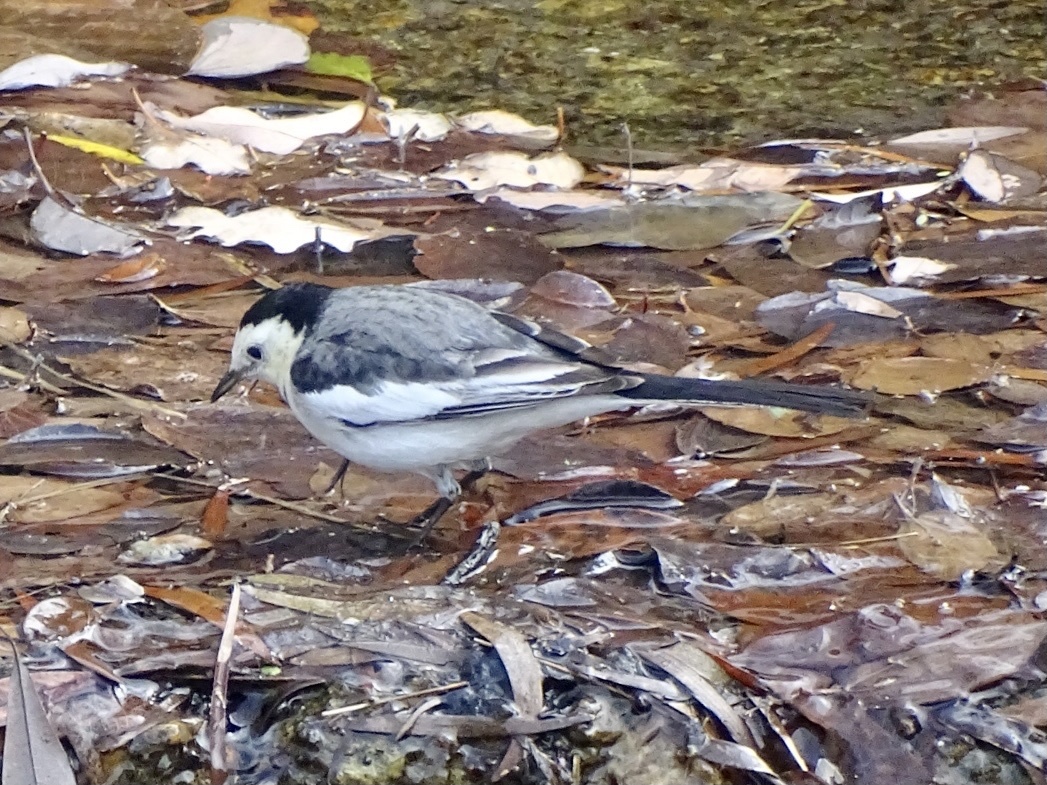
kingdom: Animalia
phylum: Chordata
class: Aves
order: Passeriformes
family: Motacillidae
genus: Motacilla
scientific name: Motacilla alba
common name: White wagtail
